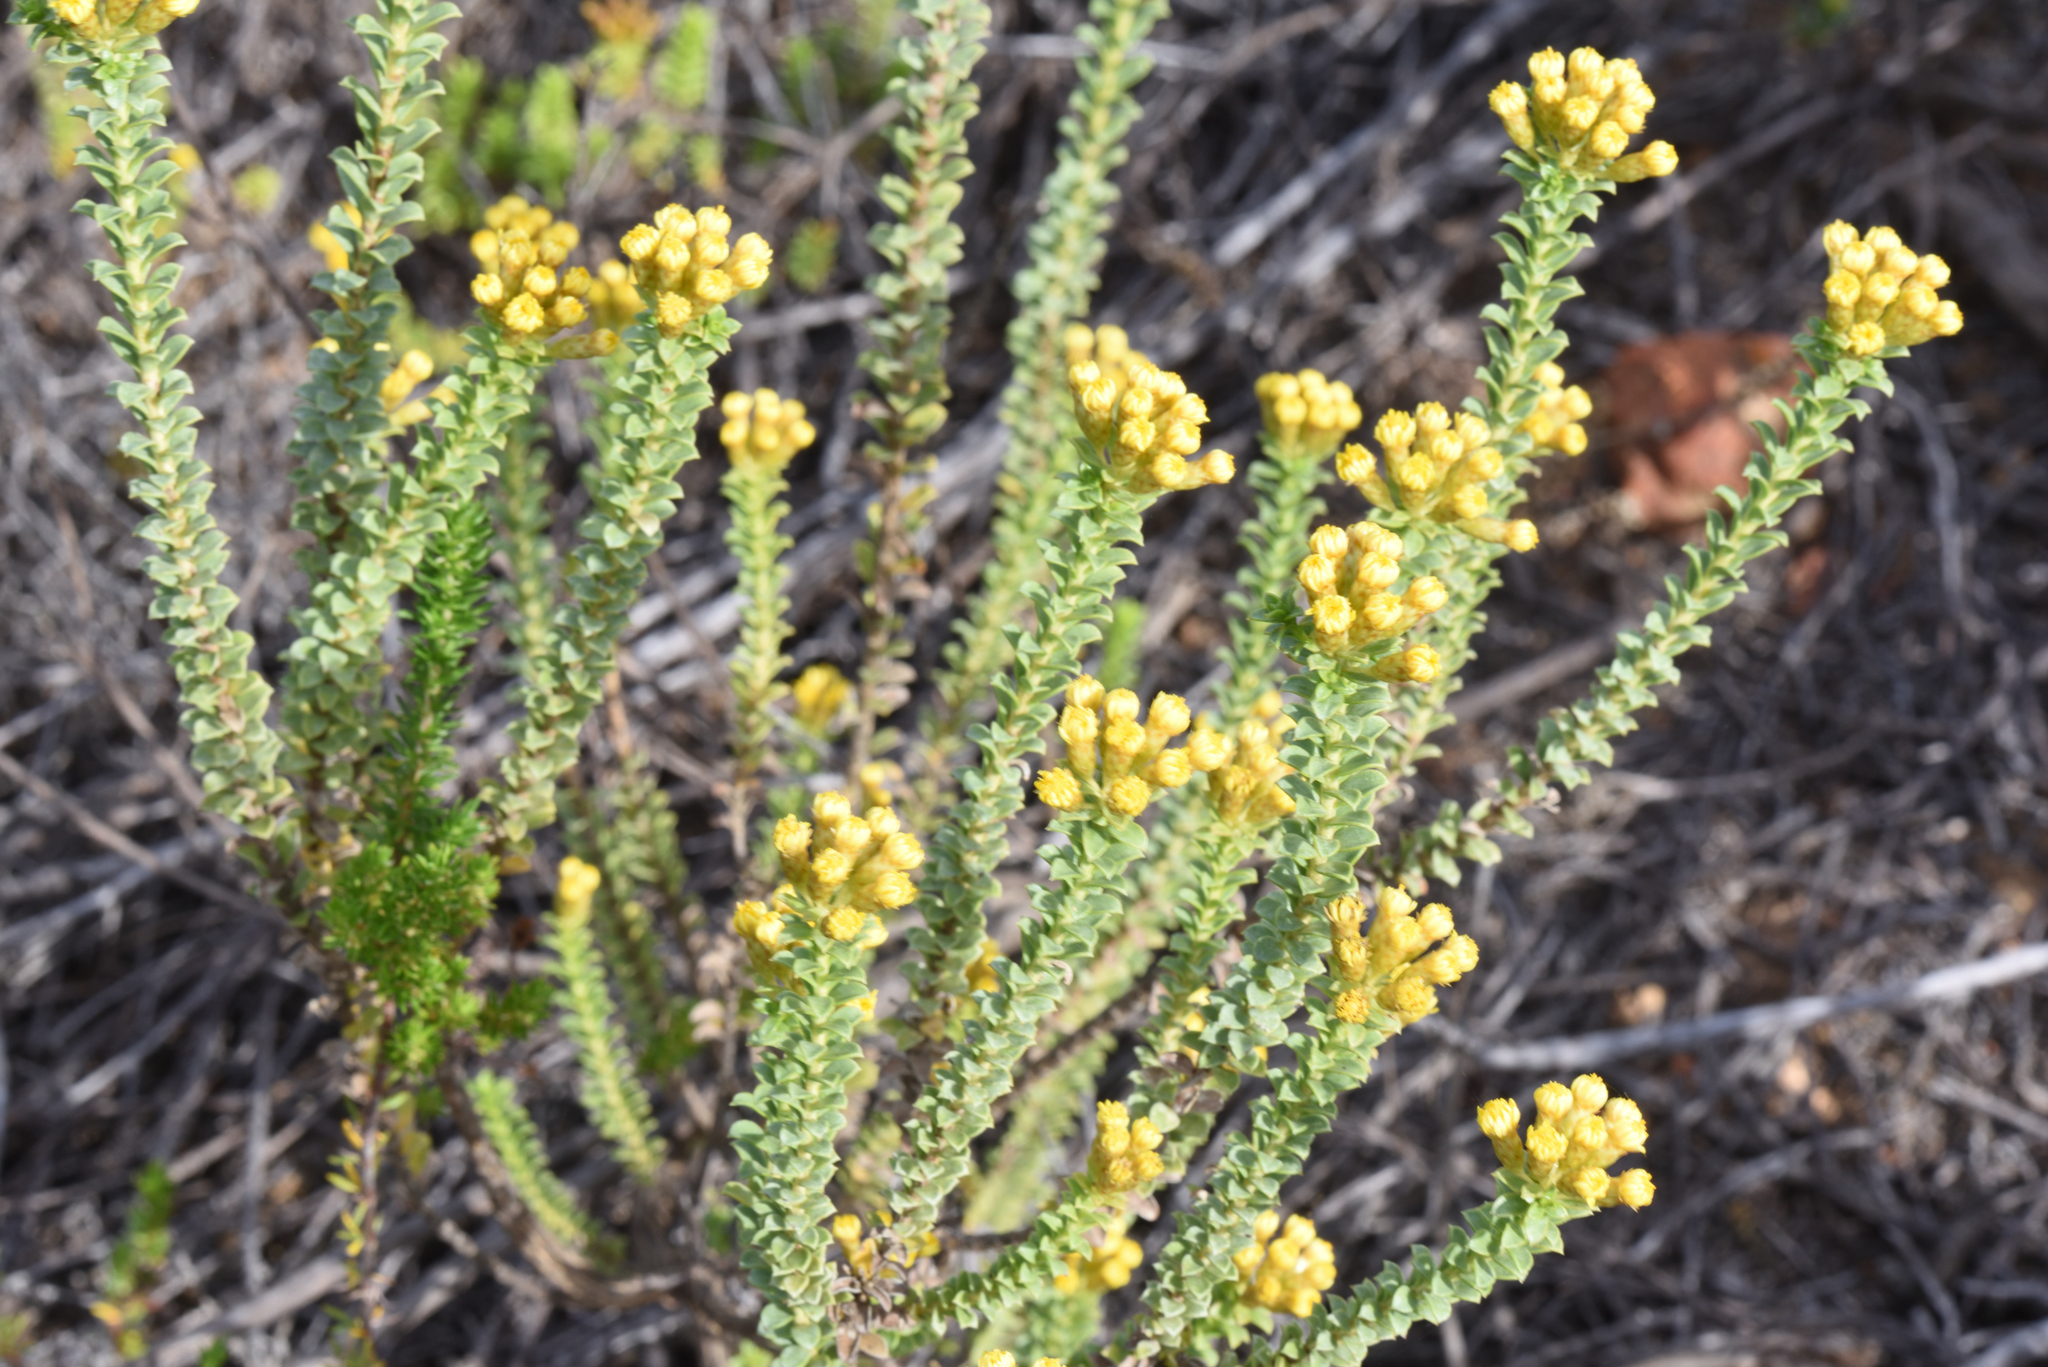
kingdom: Plantae
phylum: Tracheophyta
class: Magnoliopsida
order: Asterales
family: Asteraceae
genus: Oedera
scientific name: Oedera squarrosa
